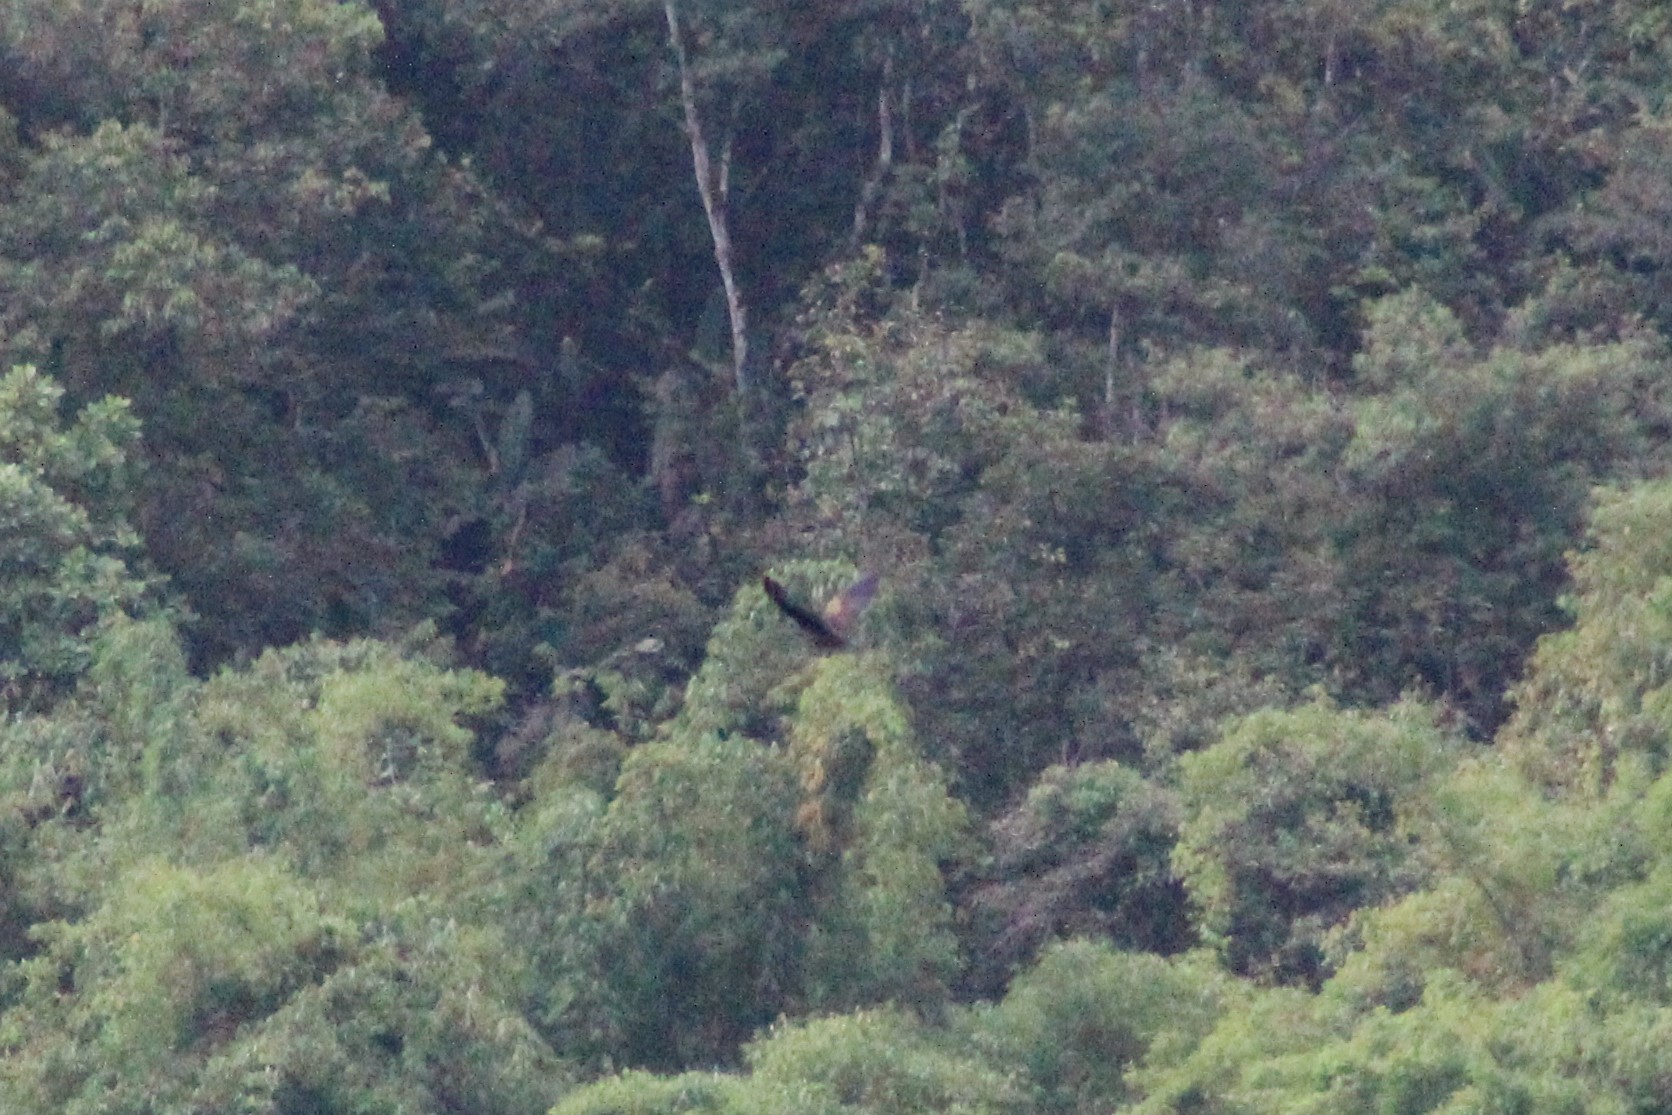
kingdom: Animalia
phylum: Chordata
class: Aves
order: Psittaciformes
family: Psittacidae
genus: Pionus
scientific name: Pionus chalcopterus
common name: Bronze-winged parrot
